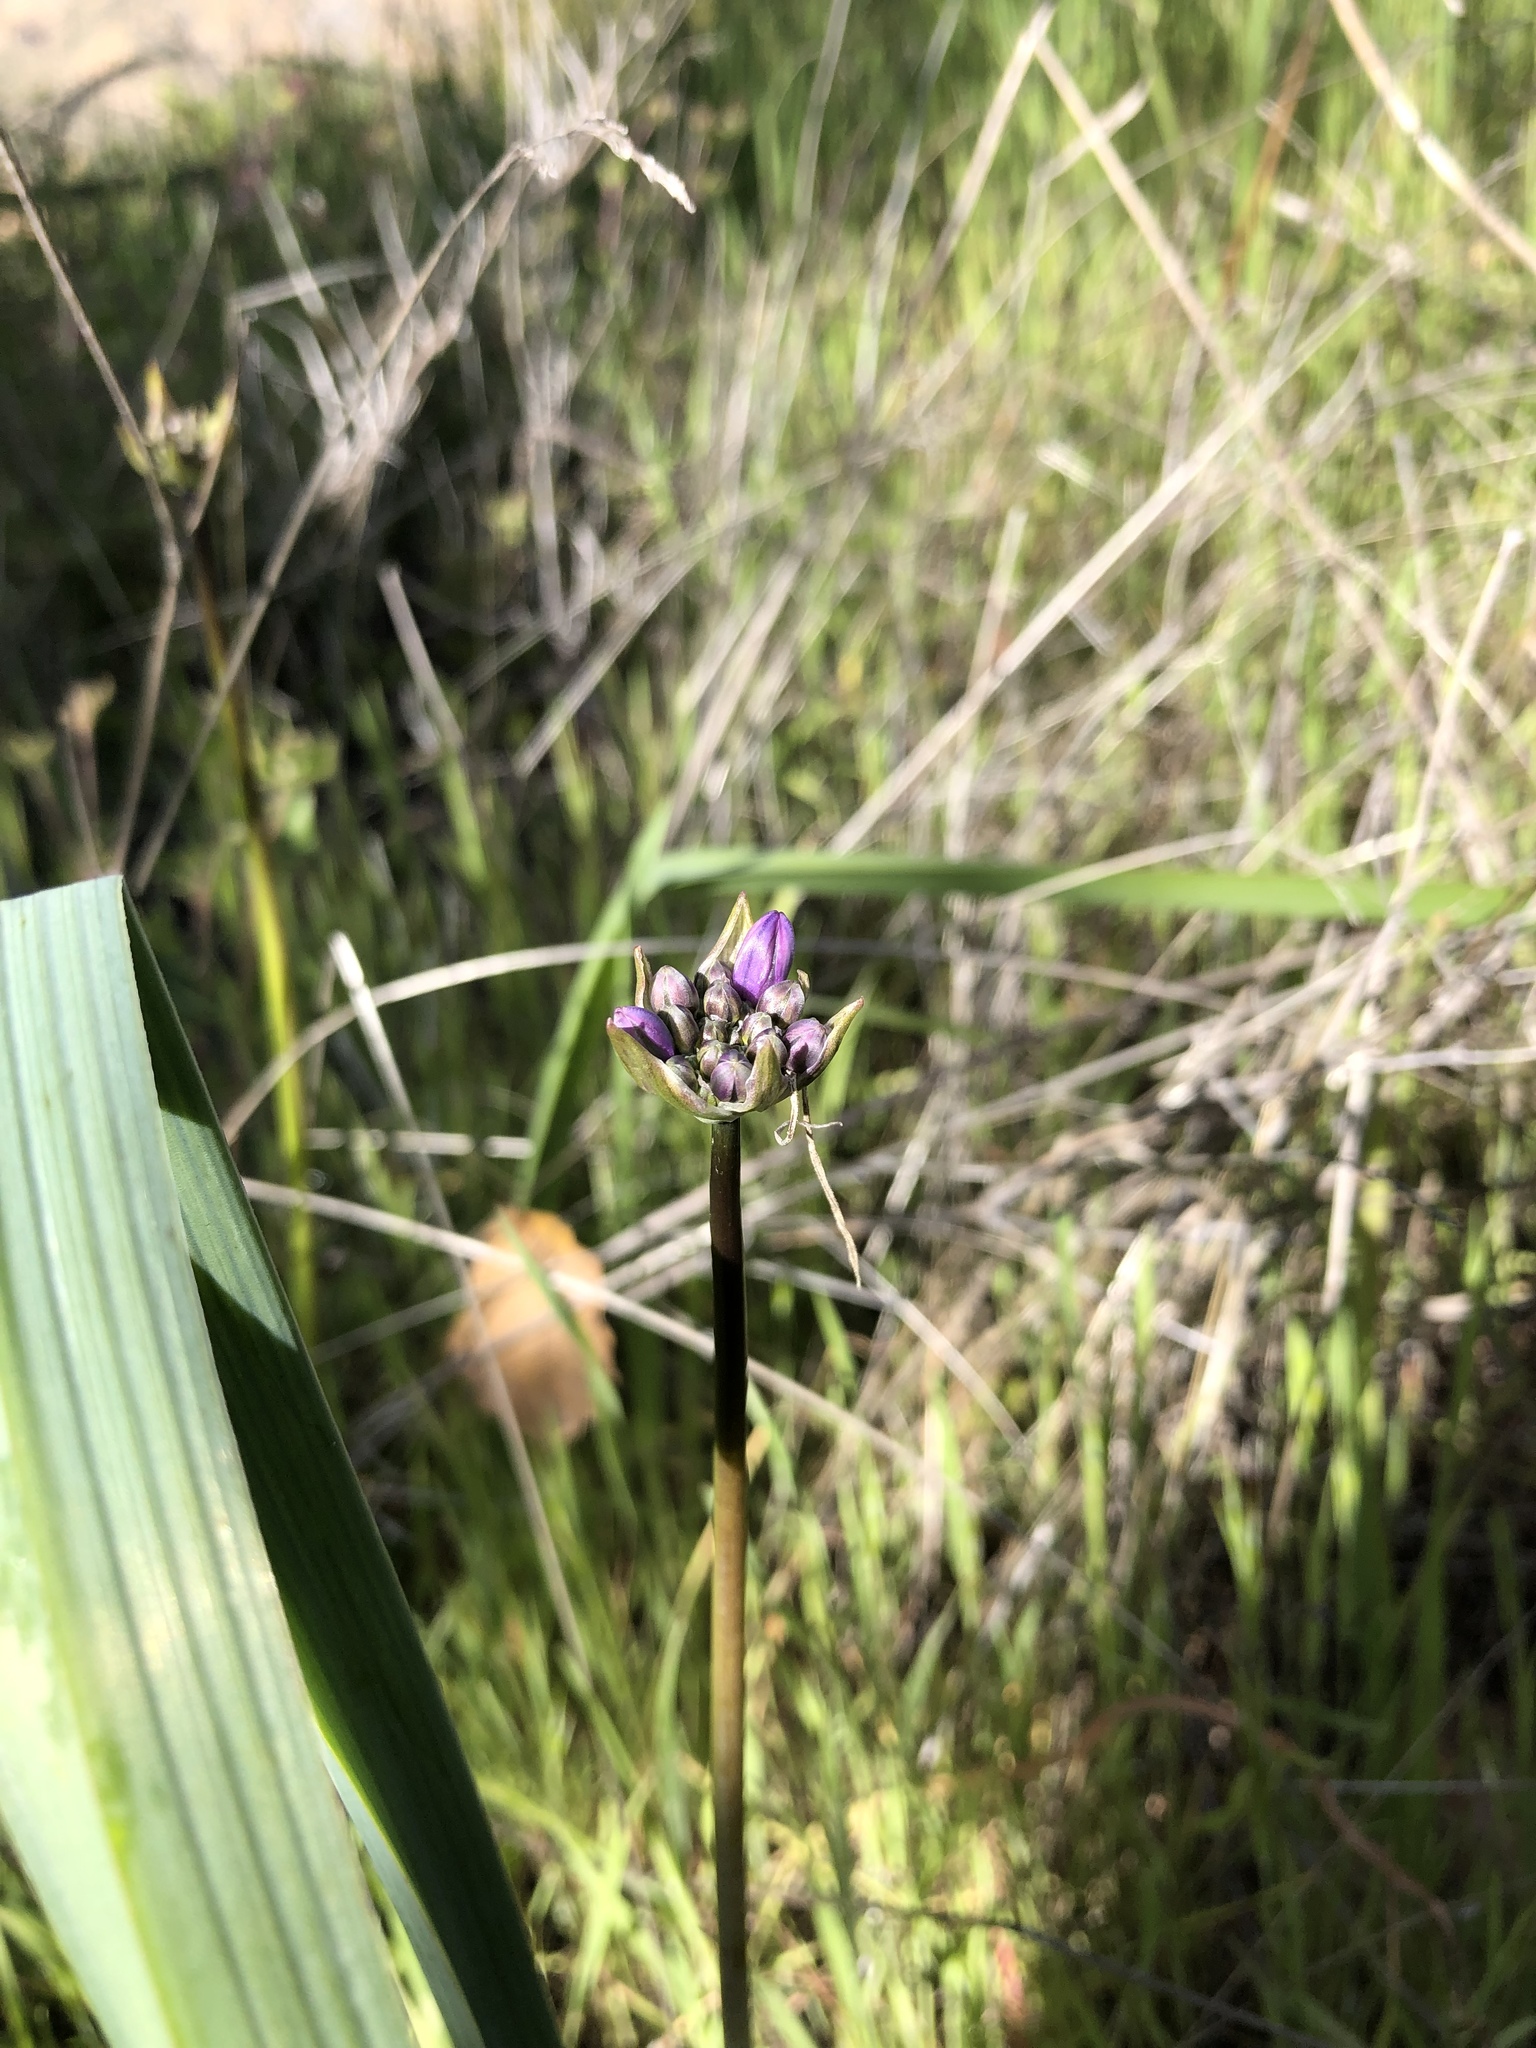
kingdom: Plantae
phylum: Tracheophyta
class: Liliopsida
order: Asparagales
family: Asparagaceae
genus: Dipterostemon
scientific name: Dipterostemon capitatus
